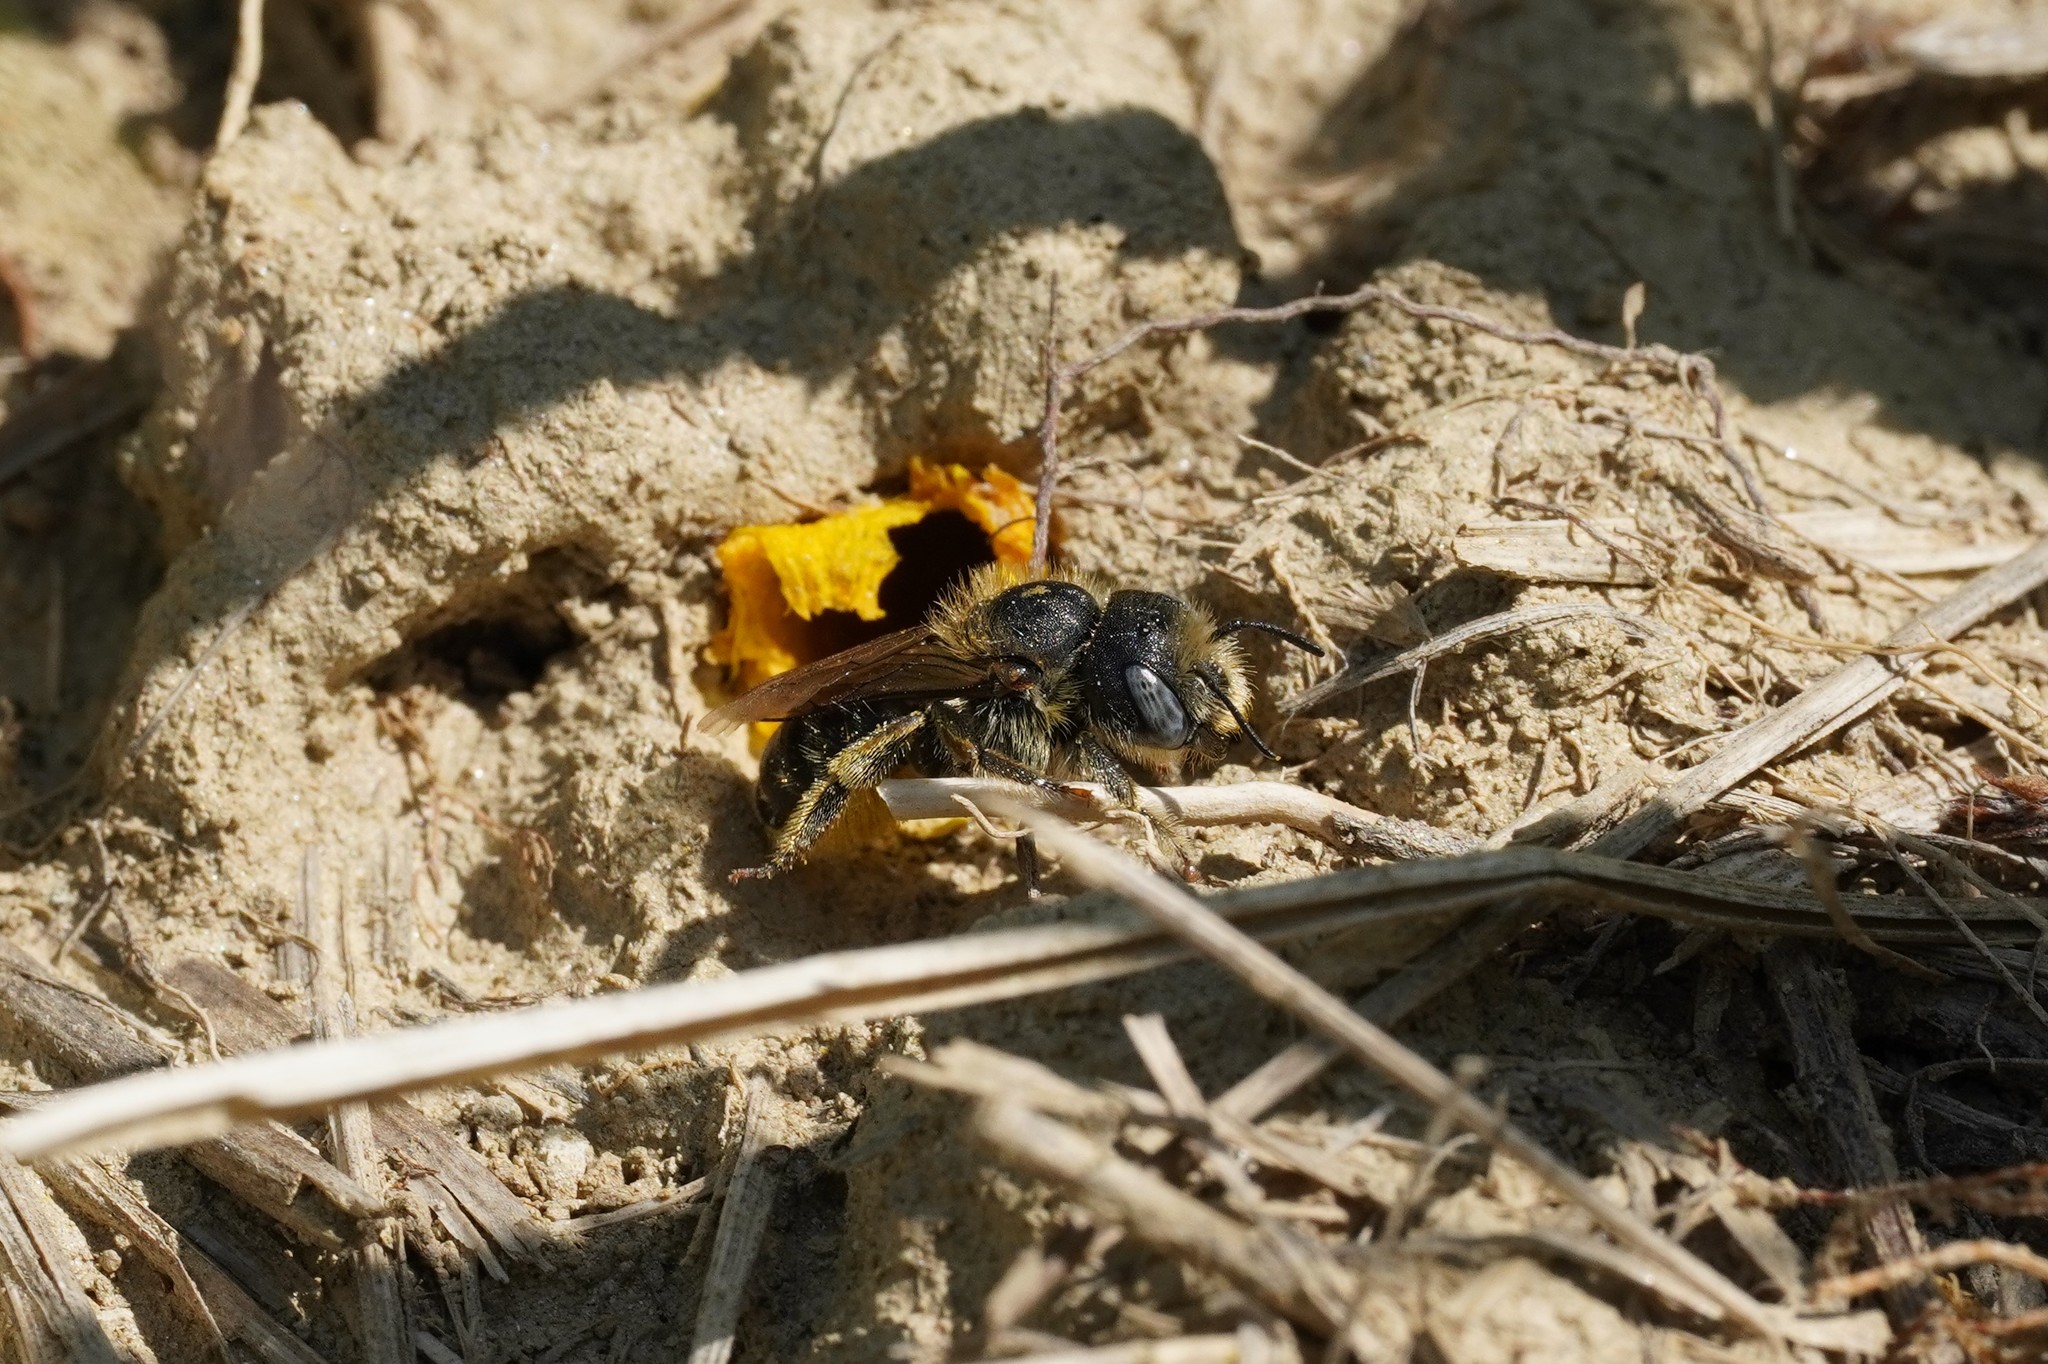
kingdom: Animalia
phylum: Arthropoda
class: Insecta
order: Hymenoptera
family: Megachilidae
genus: Hoplitis
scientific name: Hoplitis mocsaryi
